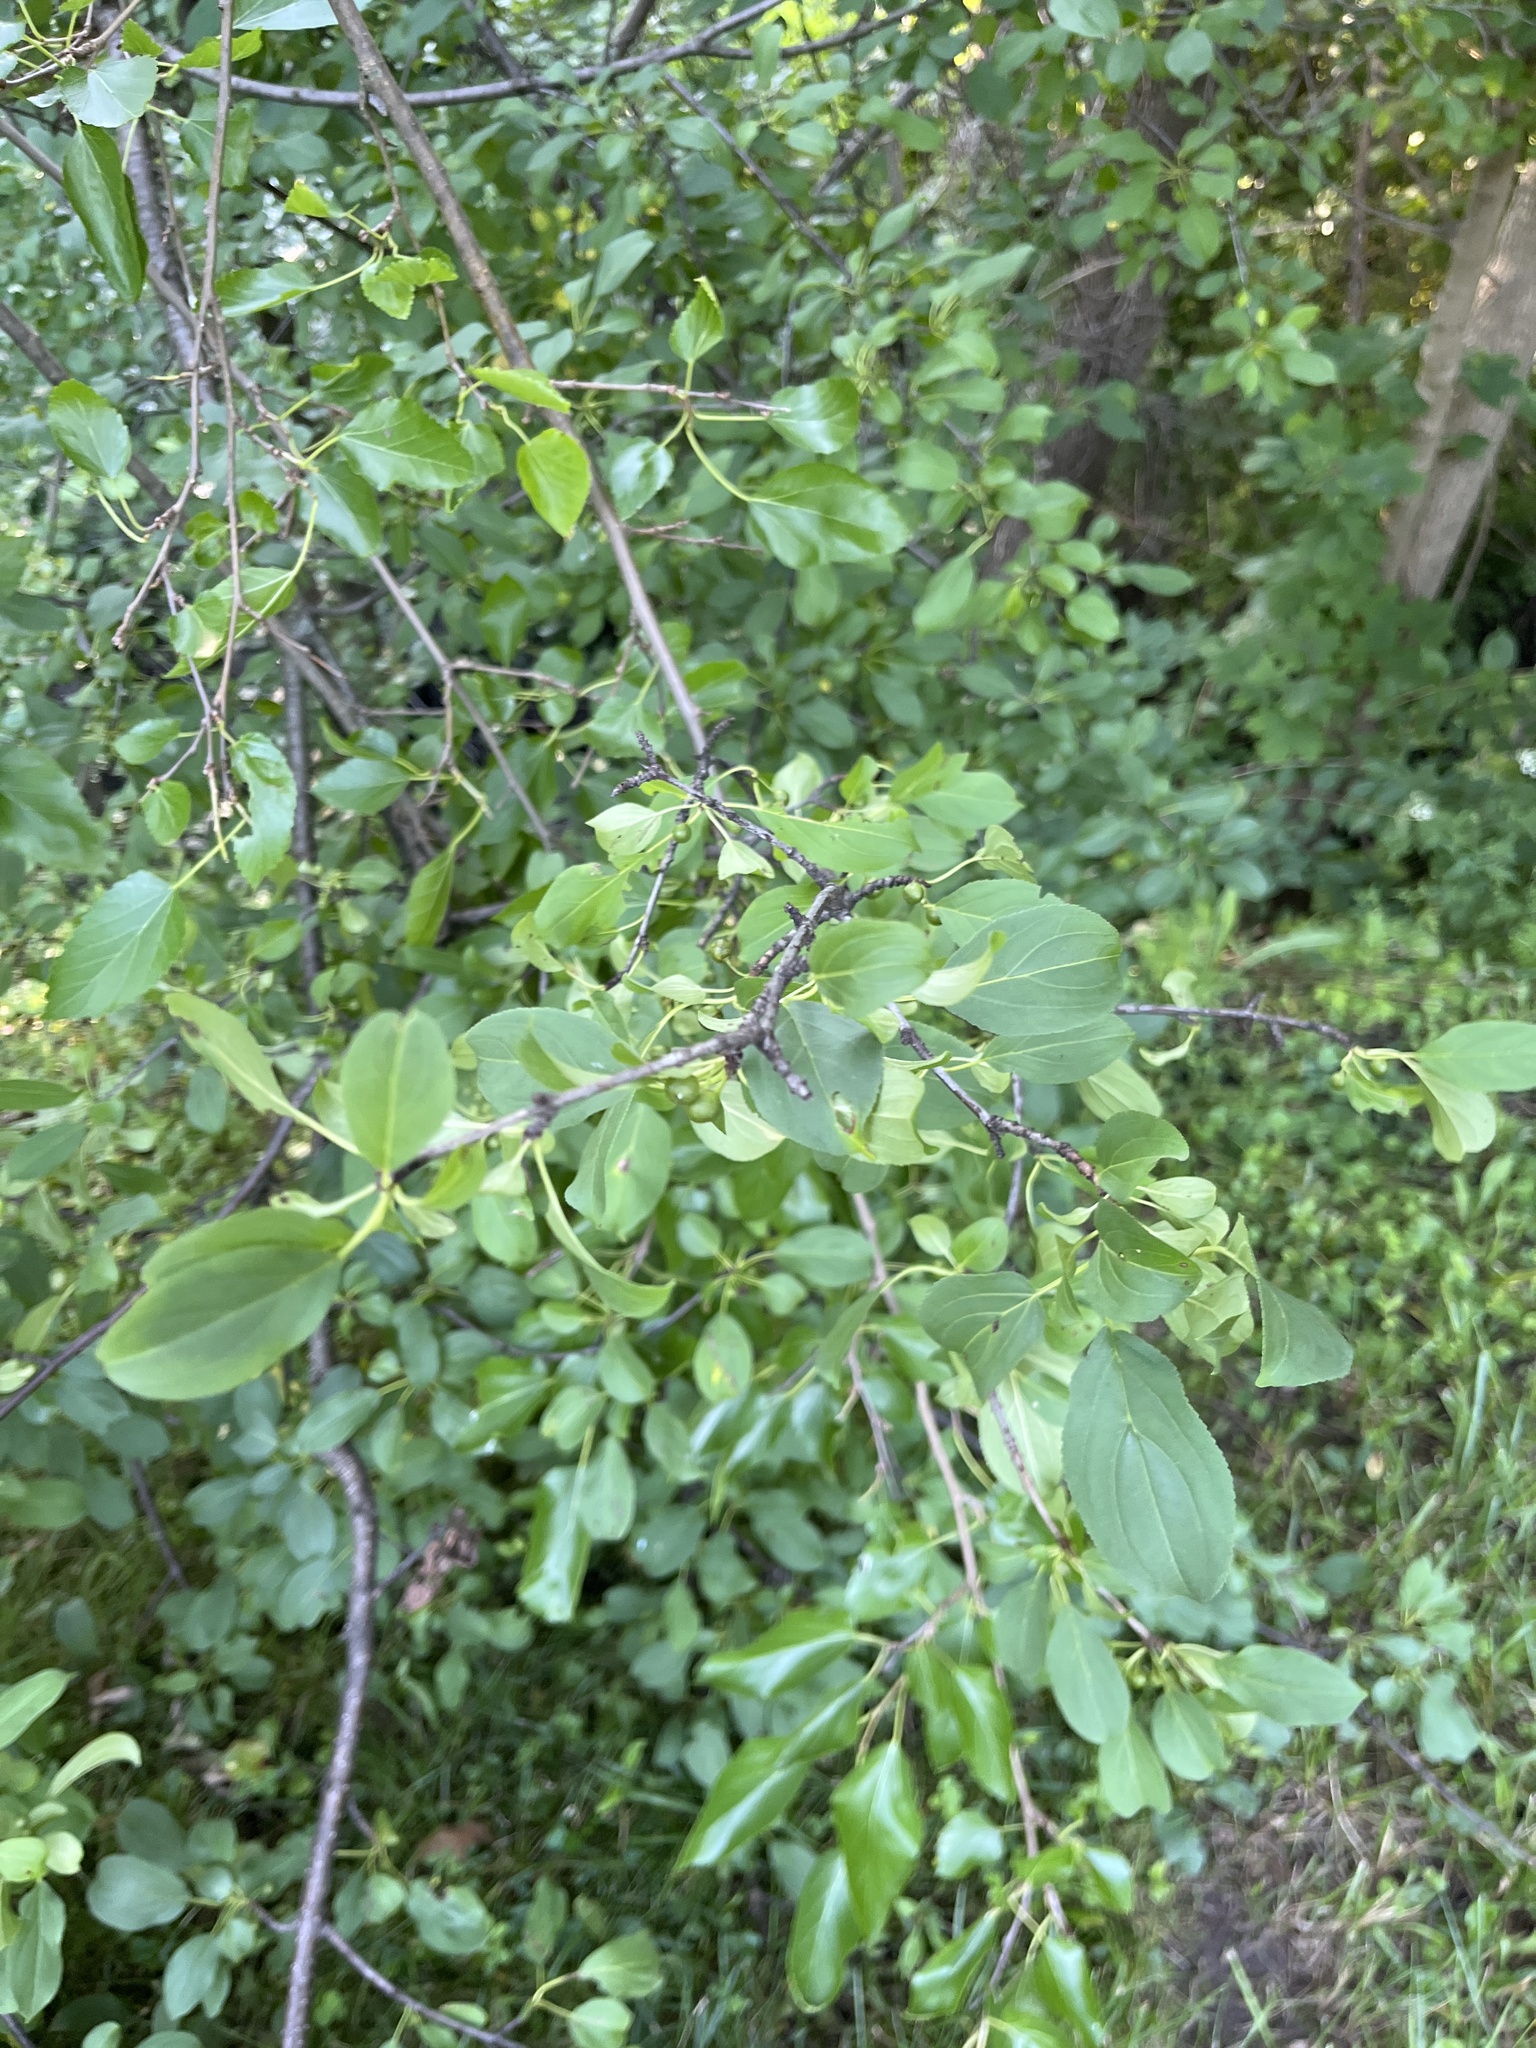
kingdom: Plantae
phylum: Tracheophyta
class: Magnoliopsida
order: Rosales
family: Rhamnaceae
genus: Rhamnus
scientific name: Rhamnus cathartica
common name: Common buckthorn
